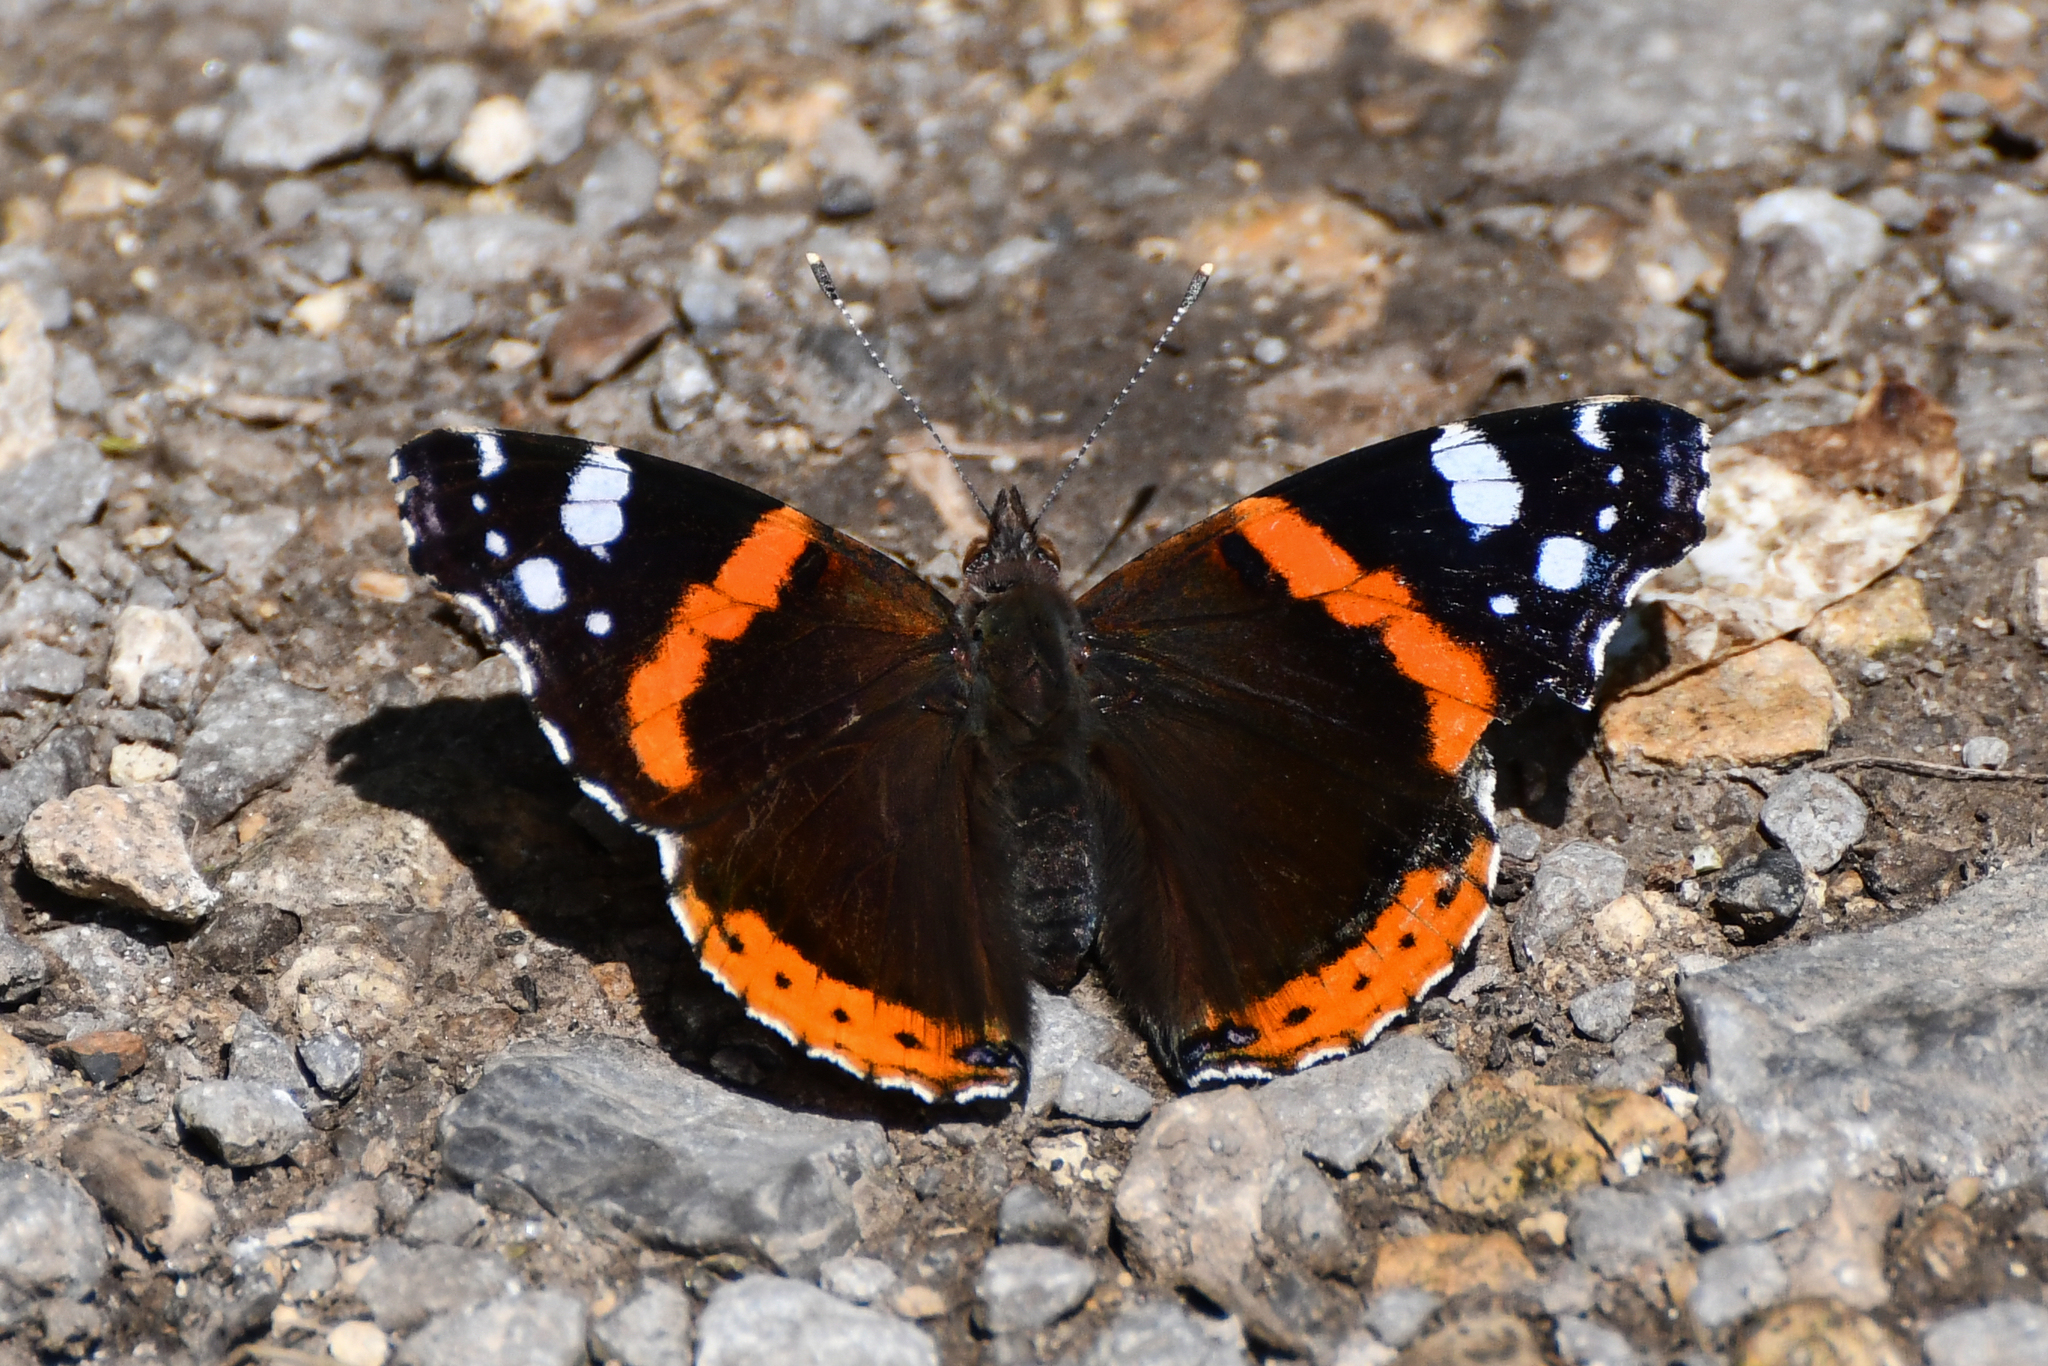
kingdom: Animalia
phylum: Arthropoda
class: Insecta
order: Lepidoptera
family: Nymphalidae
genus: Vanessa
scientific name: Vanessa atalanta
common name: Red admiral
